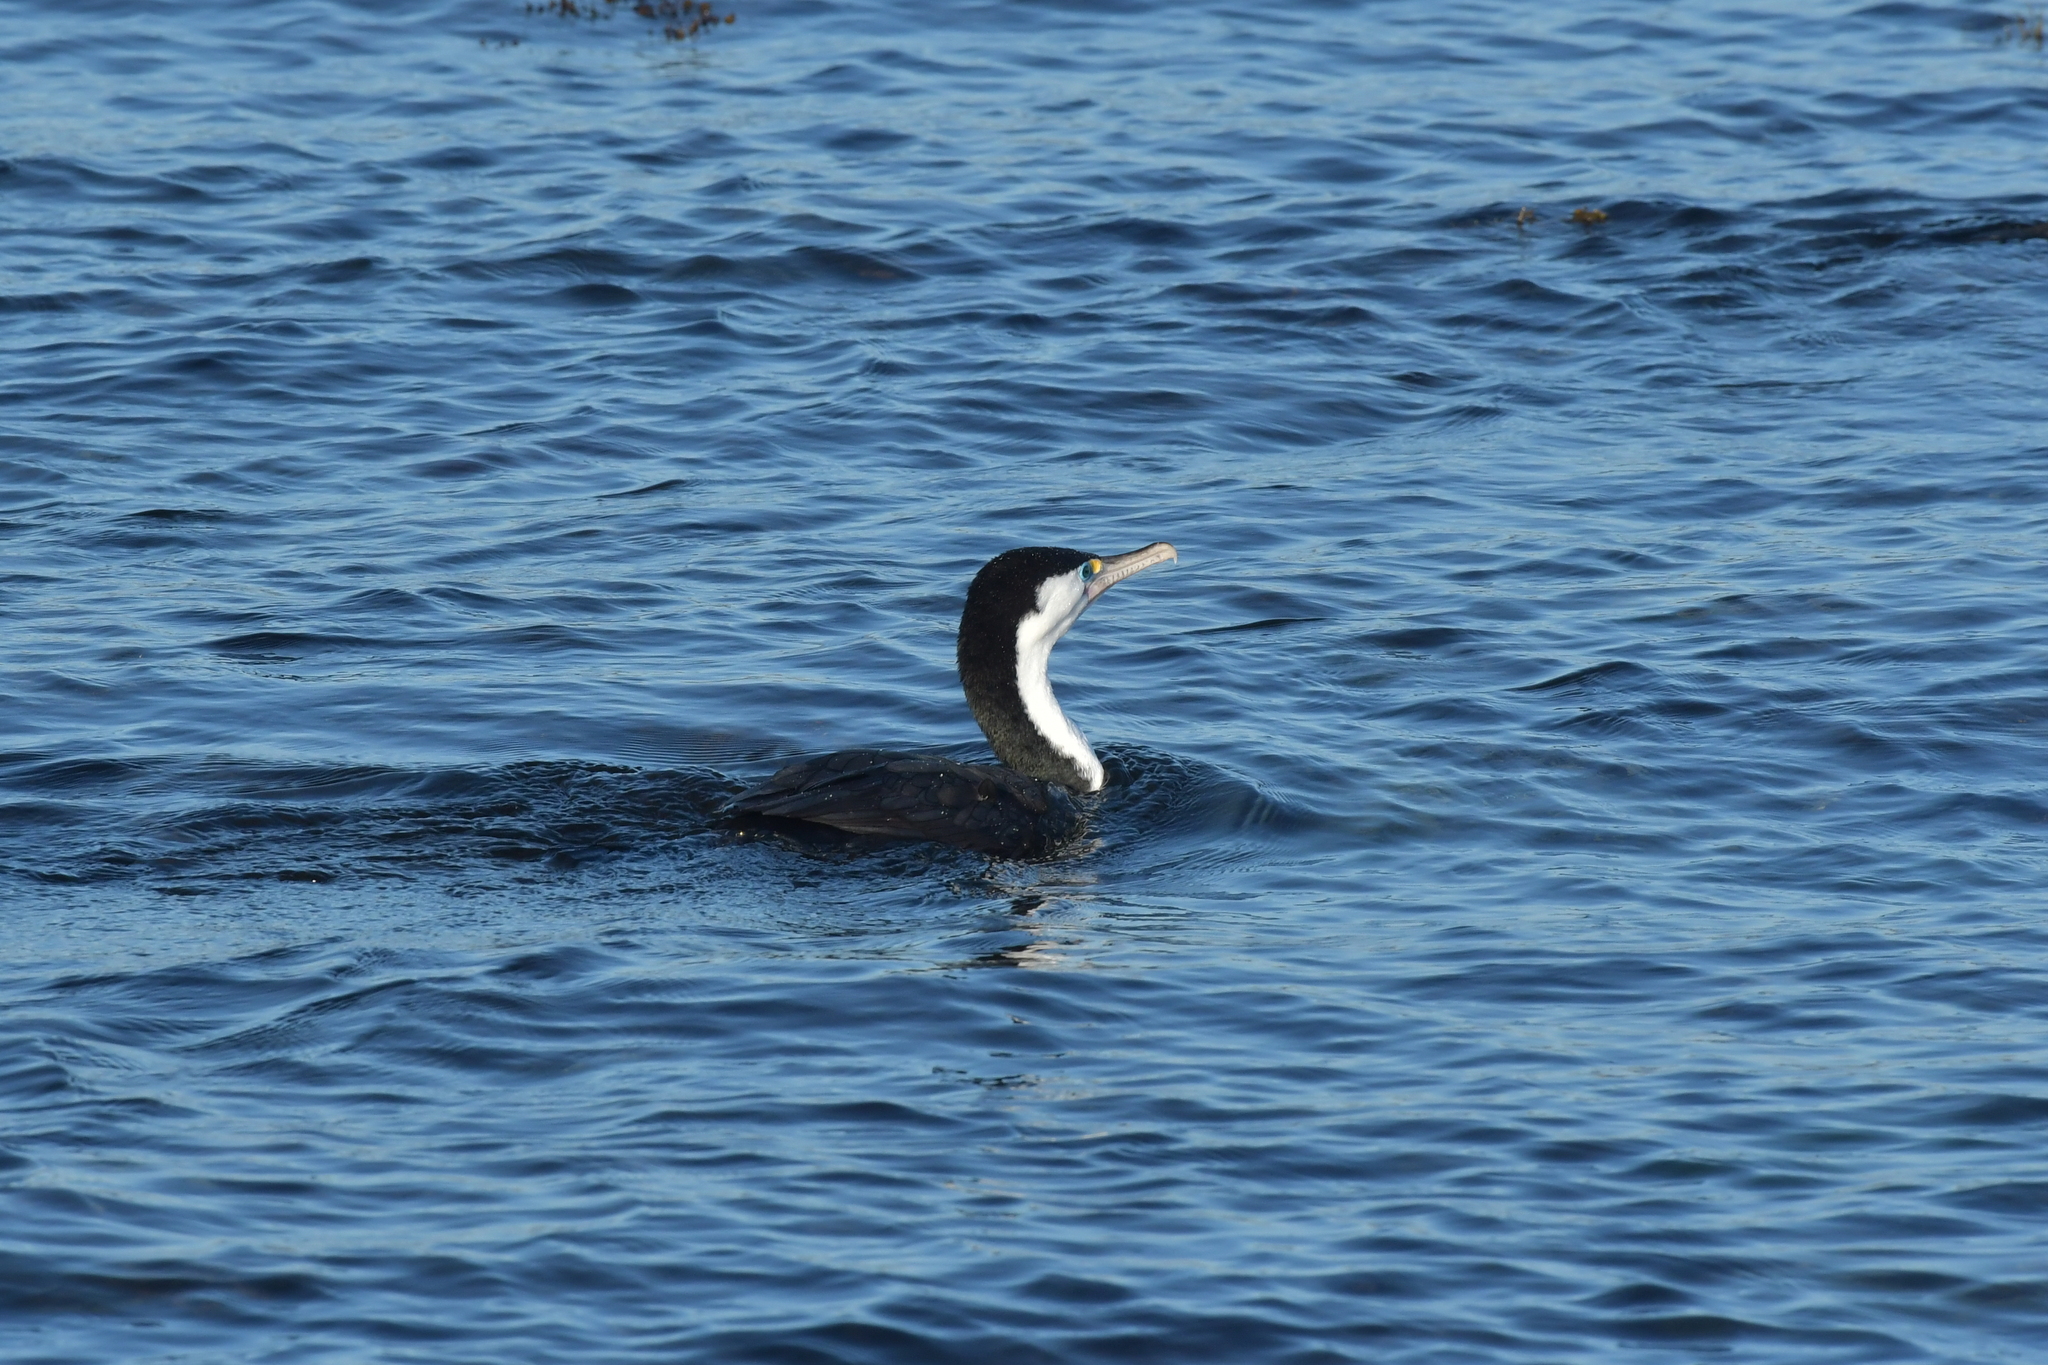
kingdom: Animalia
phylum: Chordata
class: Aves
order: Suliformes
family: Phalacrocoracidae
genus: Phalacrocorax
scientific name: Phalacrocorax varius
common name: Pied cormorant
